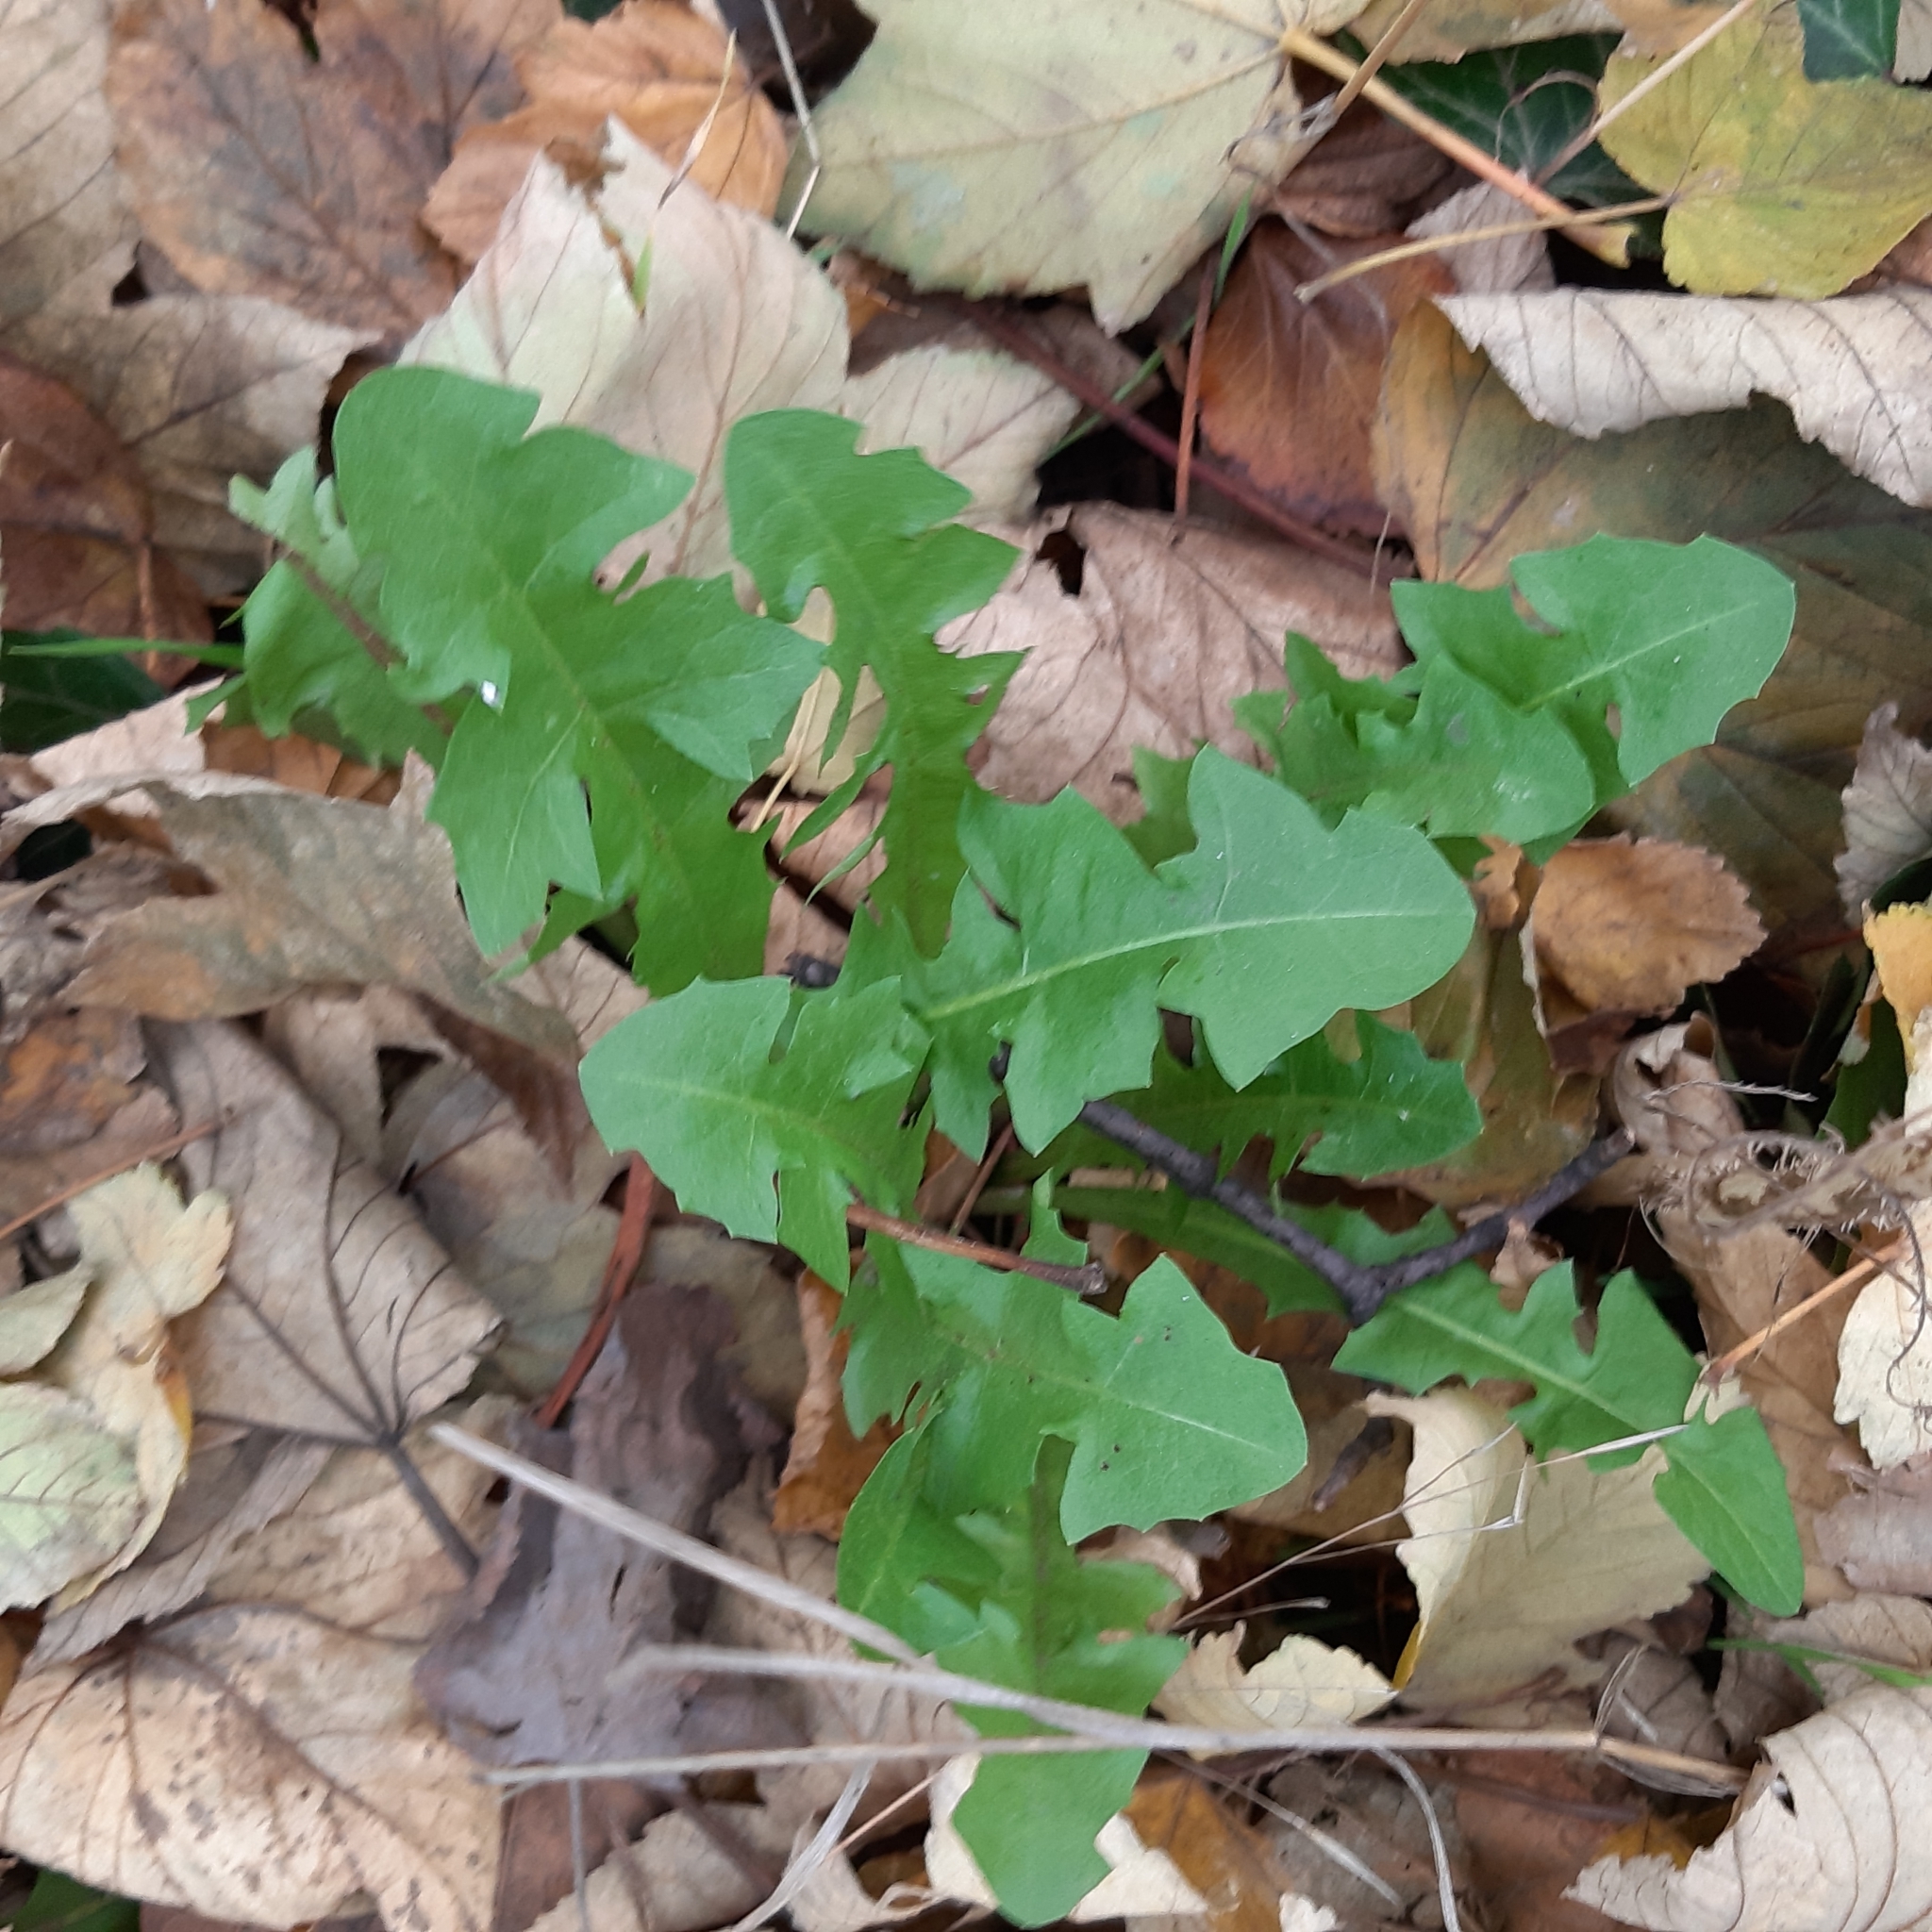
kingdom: Plantae
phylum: Tracheophyta
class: Magnoliopsida
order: Asterales
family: Asteraceae
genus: Taraxacum
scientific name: Taraxacum officinale
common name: Common dandelion
